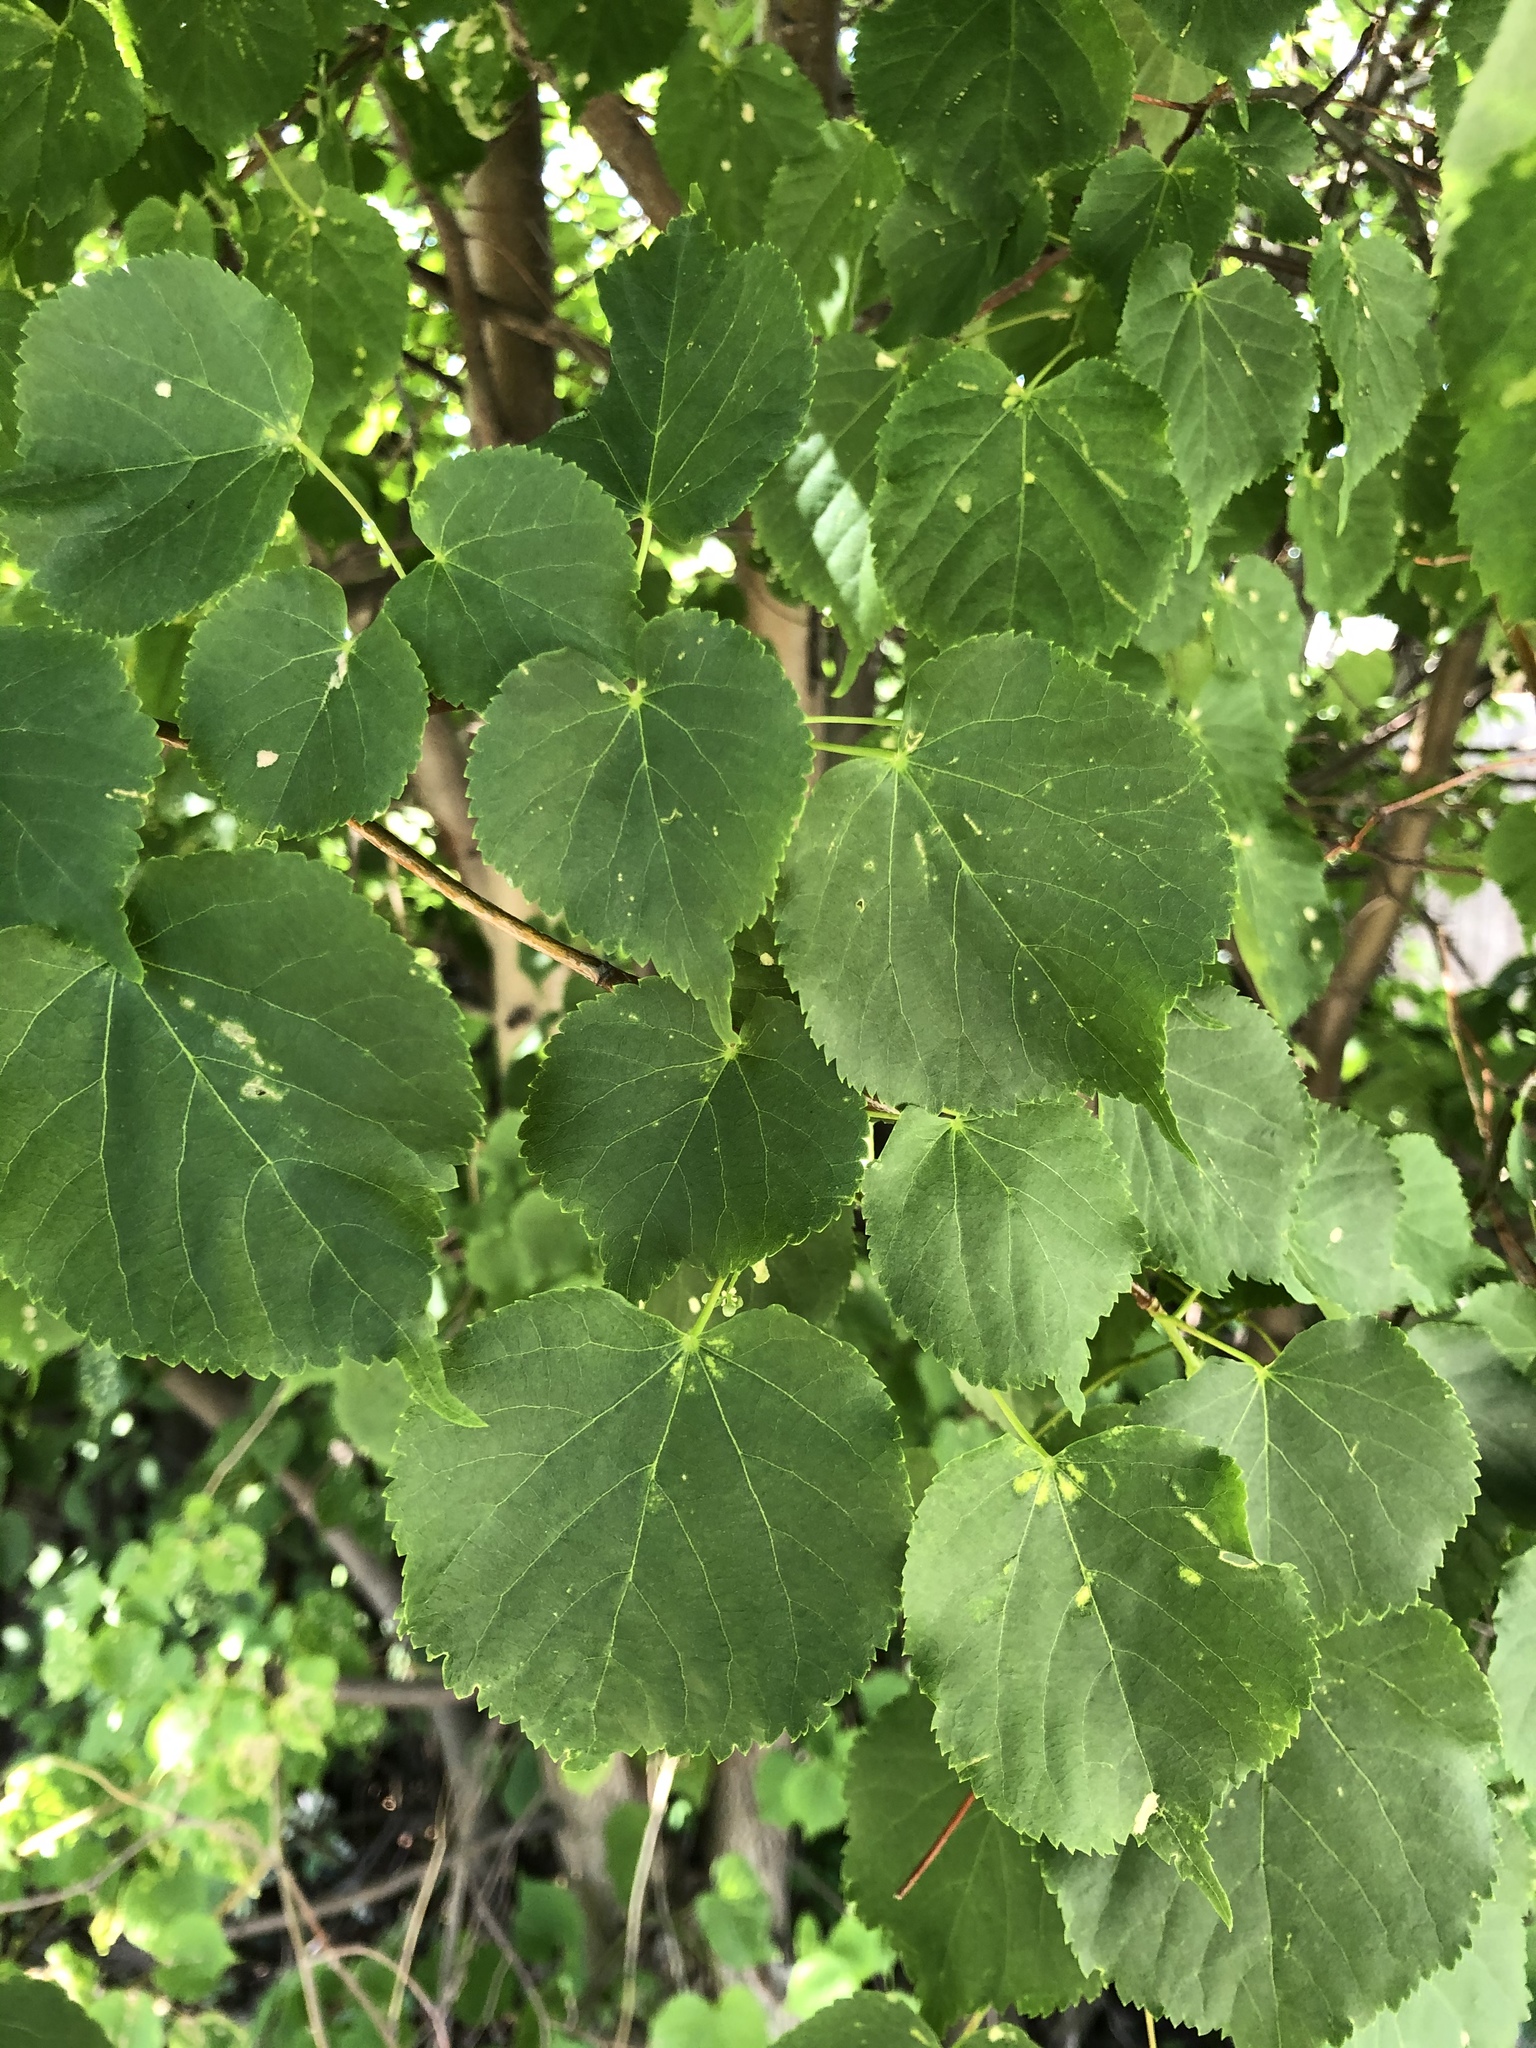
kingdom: Plantae
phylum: Tracheophyta
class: Magnoliopsida
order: Malvales
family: Malvaceae
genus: Tilia
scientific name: Tilia cordata
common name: Small-leaved lime
